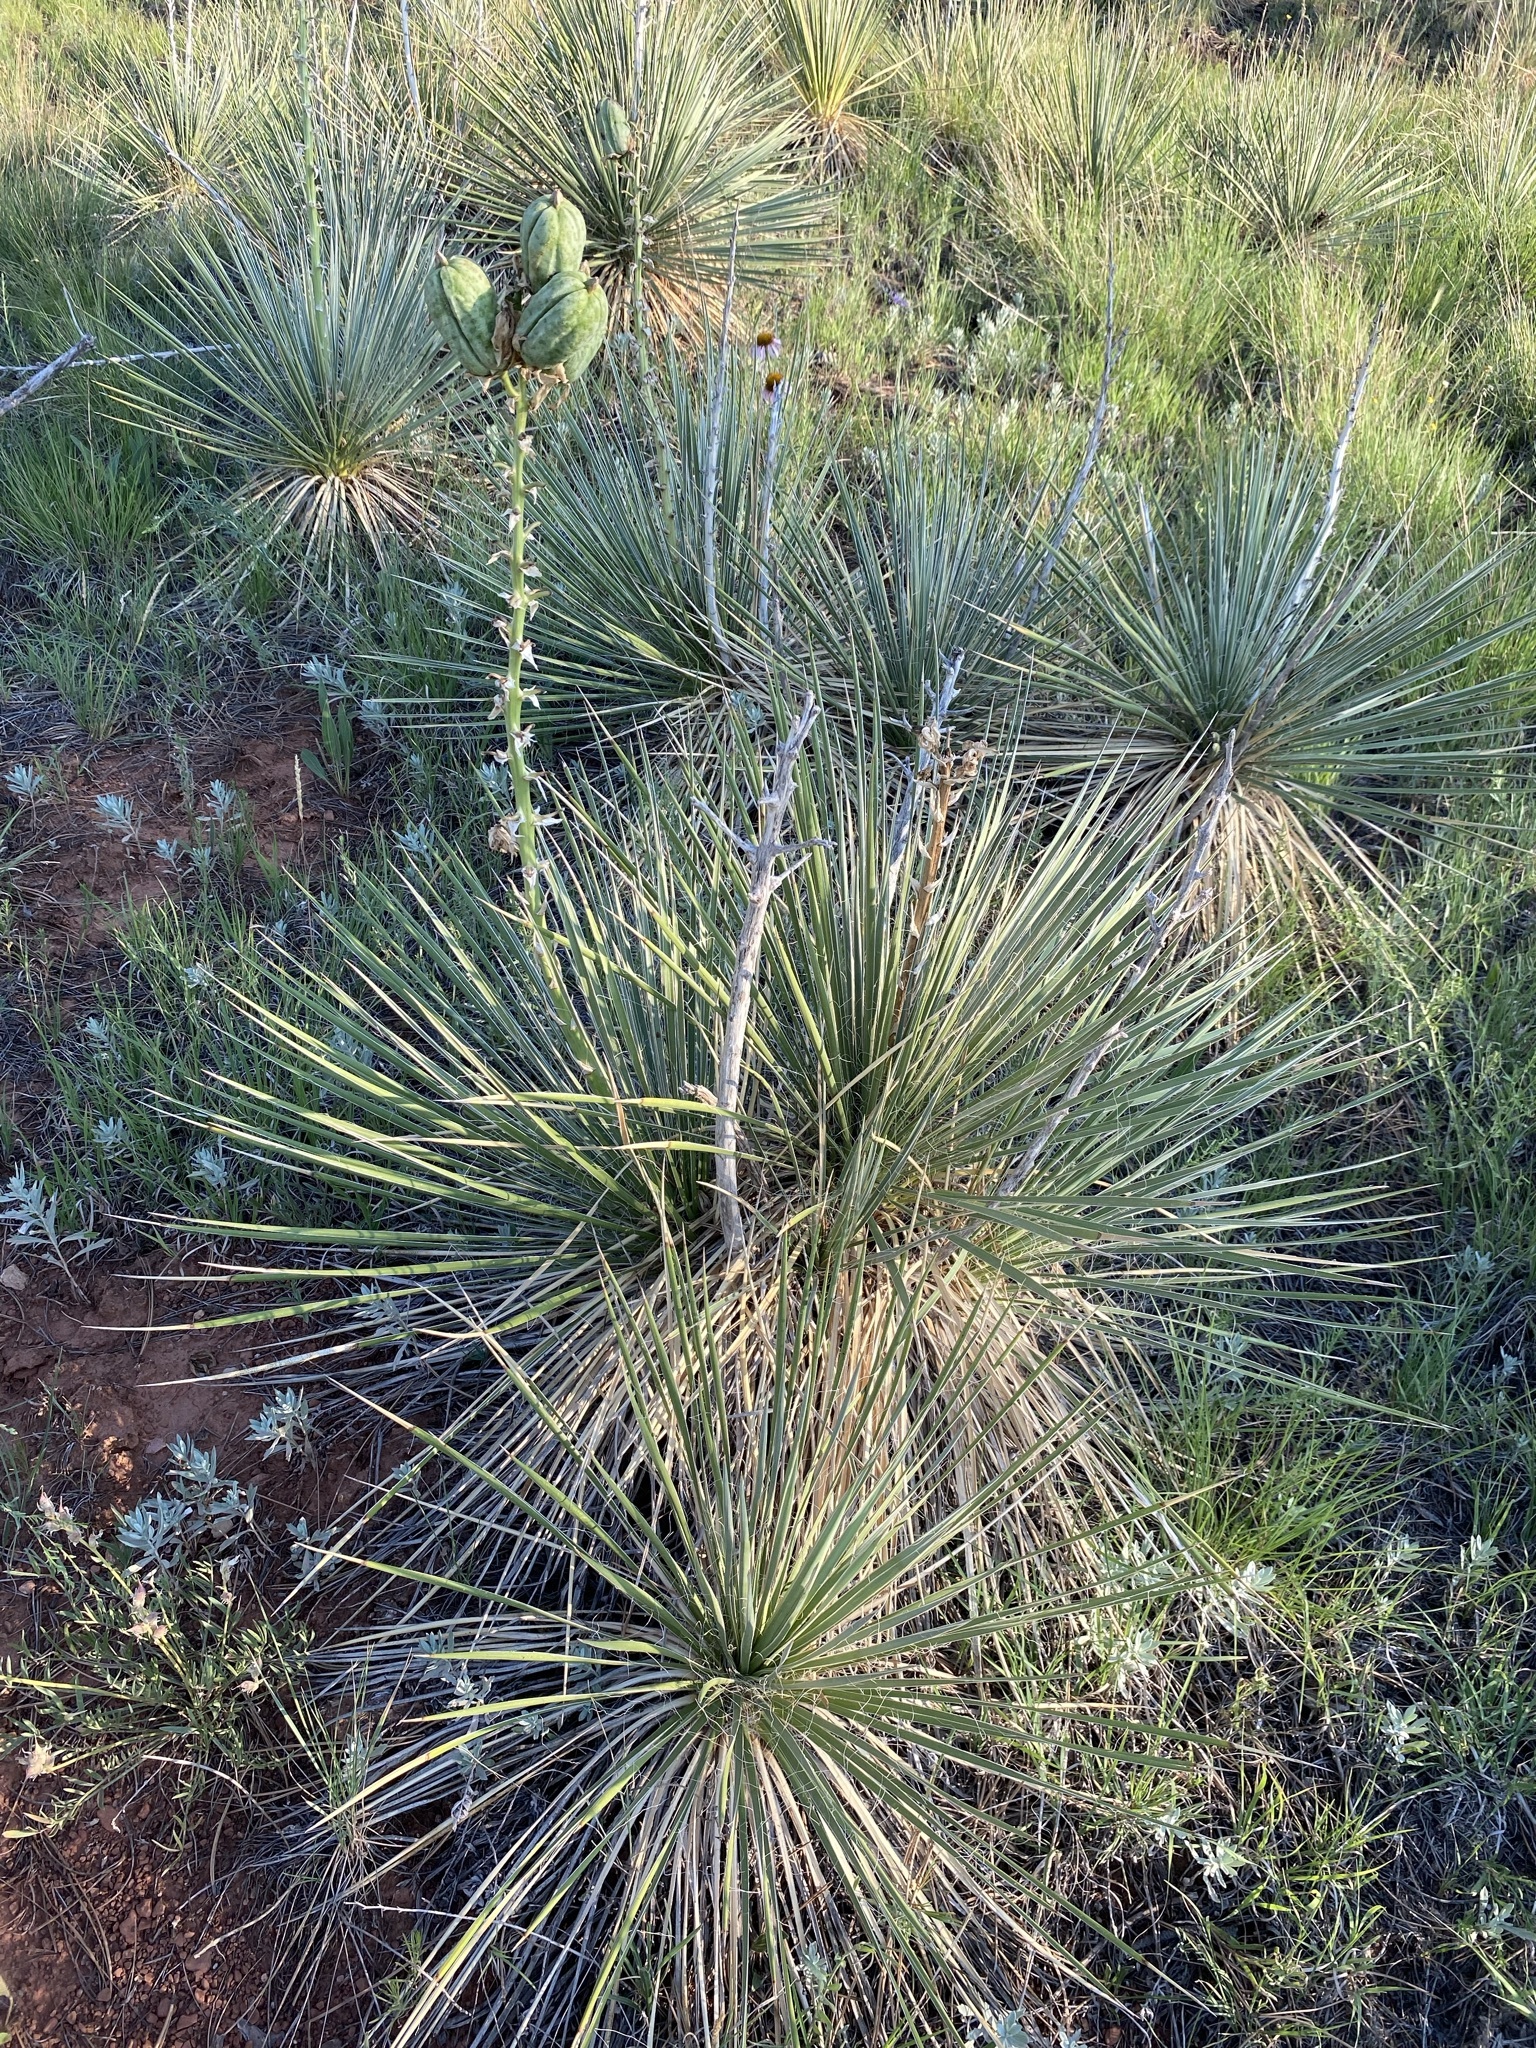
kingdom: Plantae
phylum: Tracheophyta
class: Liliopsida
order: Asparagales
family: Asparagaceae
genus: Yucca
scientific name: Yucca glauca
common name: Great plains yucca
